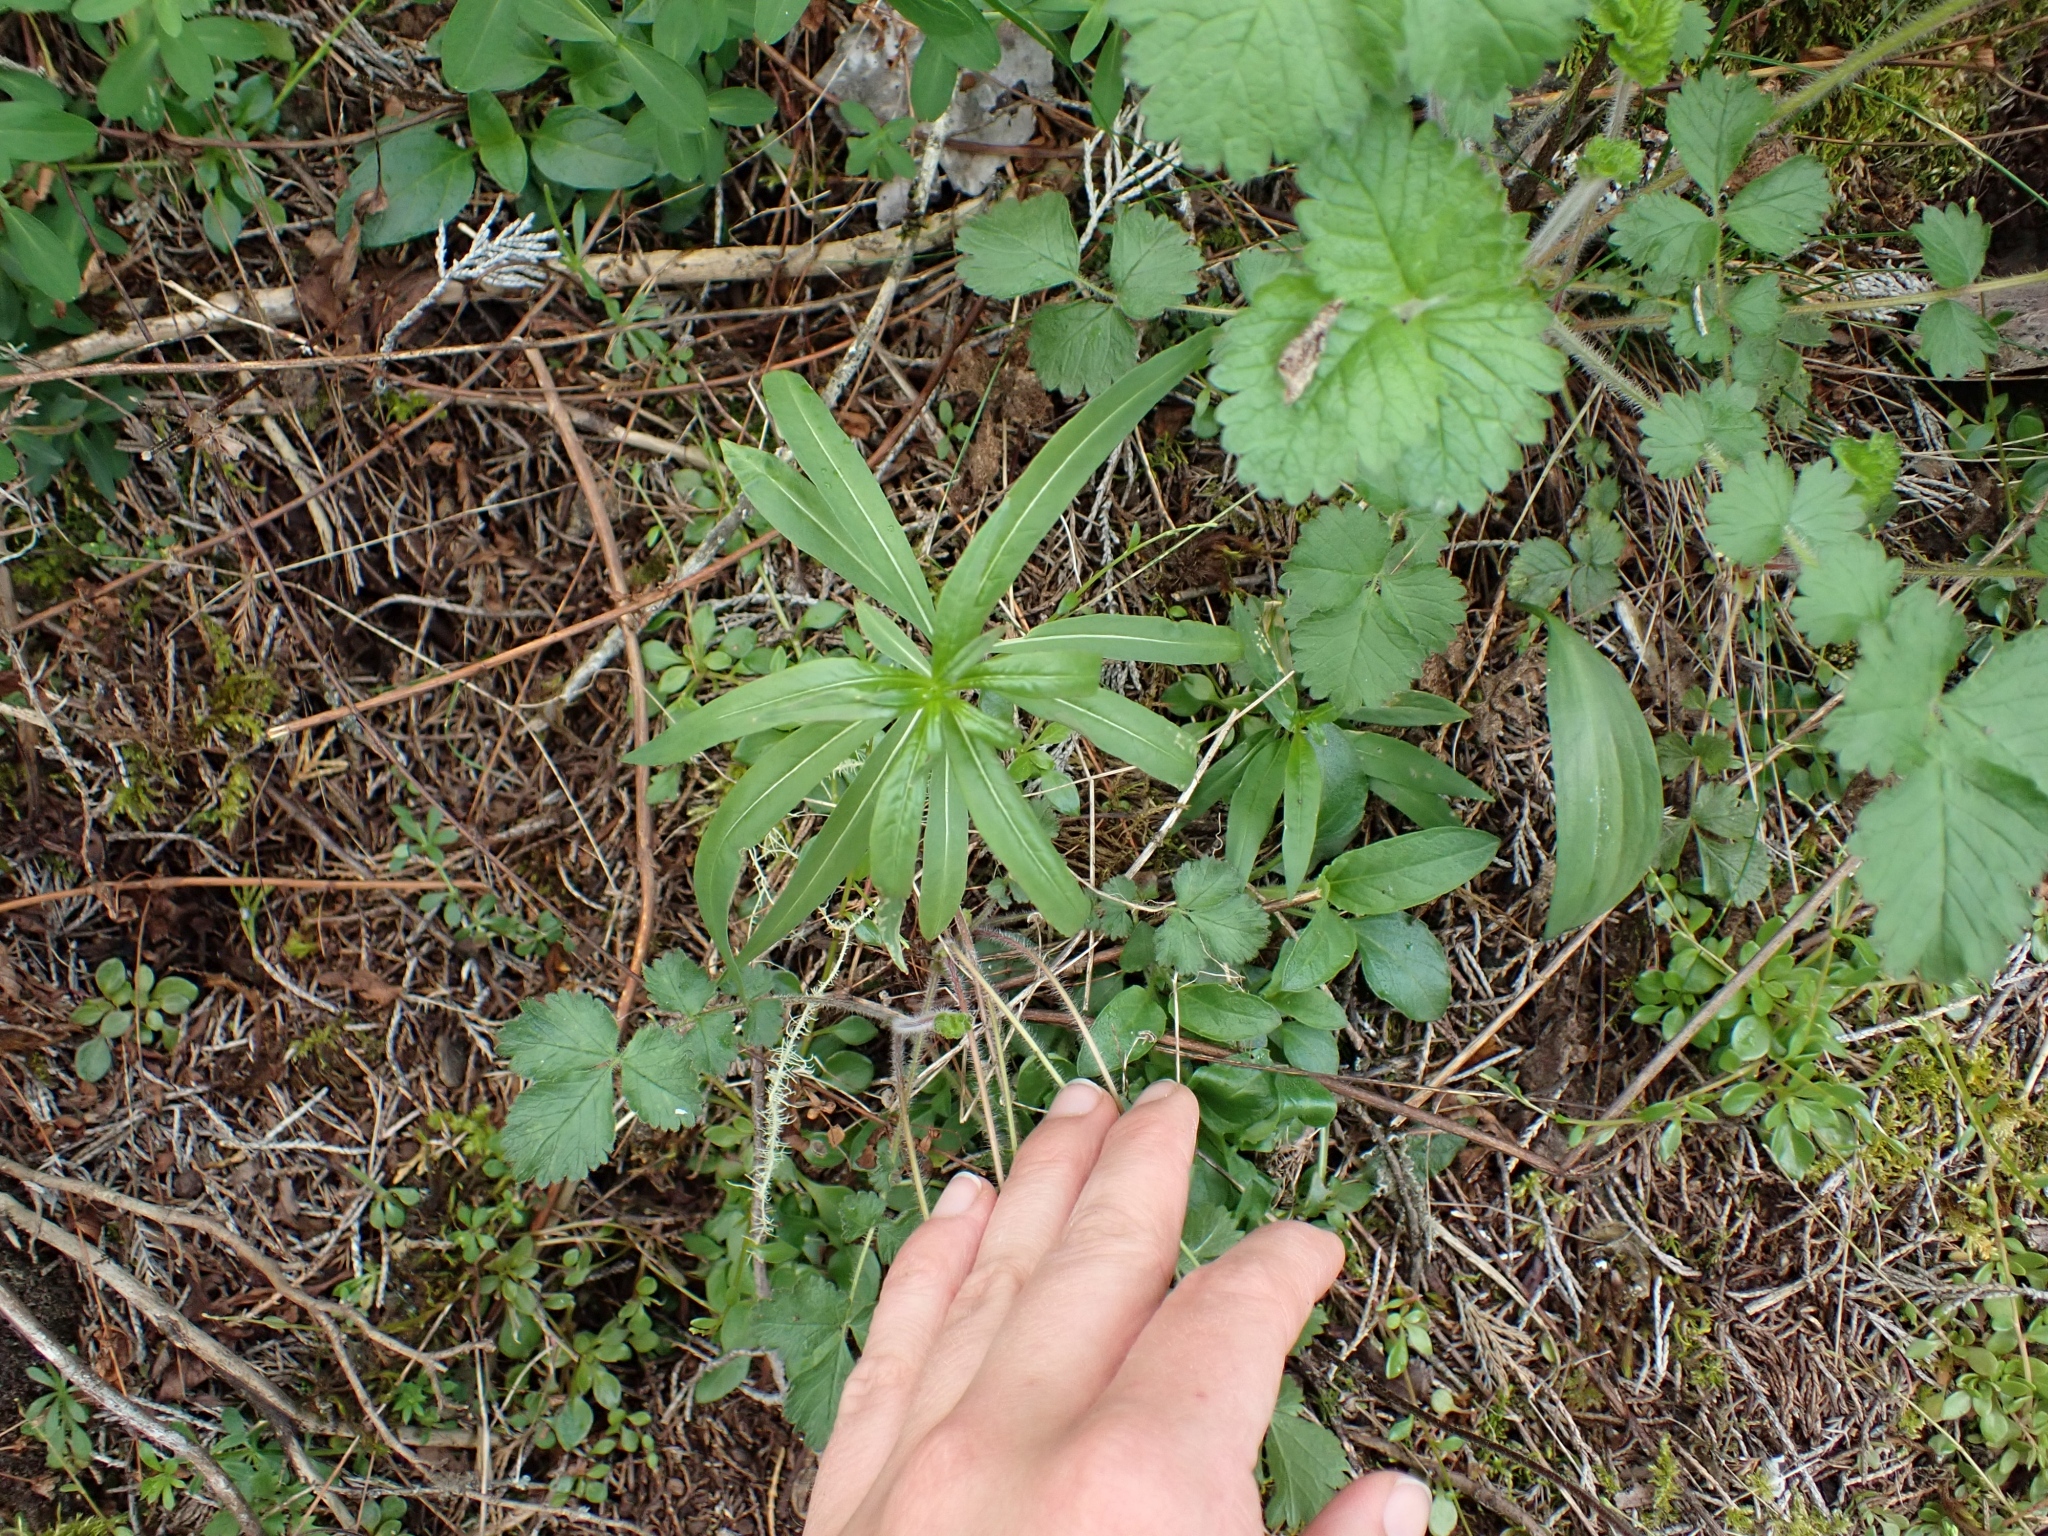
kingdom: Plantae
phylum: Tracheophyta
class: Magnoliopsida
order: Myrtales
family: Onagraceae
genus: Chamaenerion
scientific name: Chamaenerion angustifolium
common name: Fireweed
